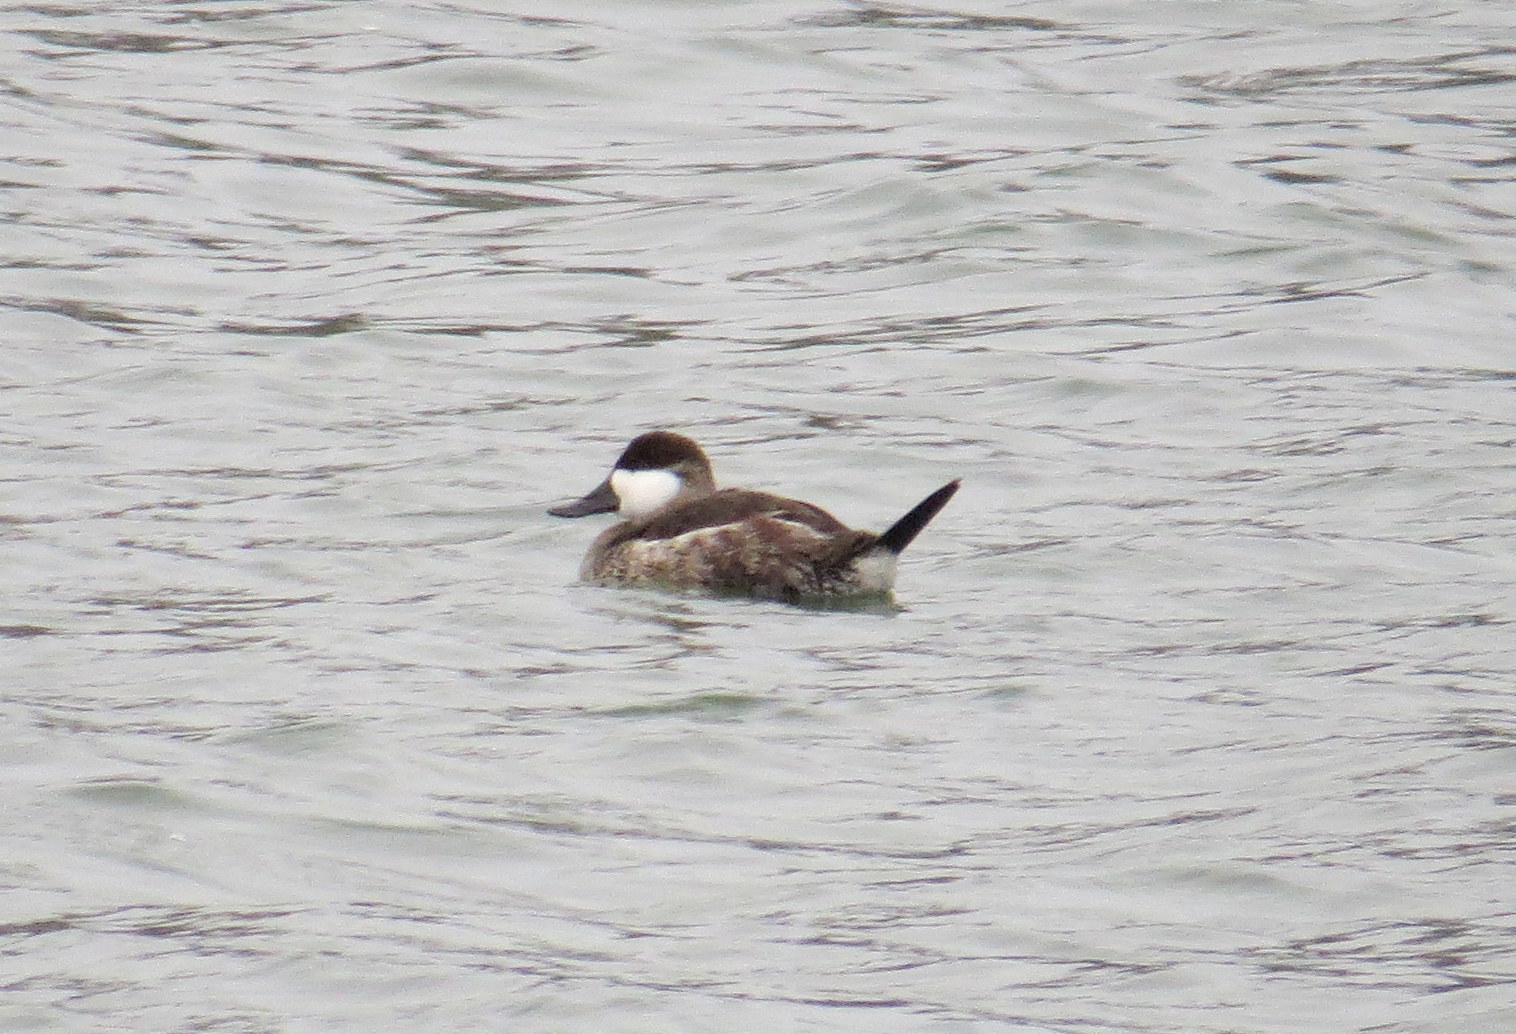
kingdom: Animalia
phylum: Chordata
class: Aves
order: Anseriformes
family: Anatidae
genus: Oxyura
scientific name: Oxyura jamaicensis
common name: Ruddy duck
